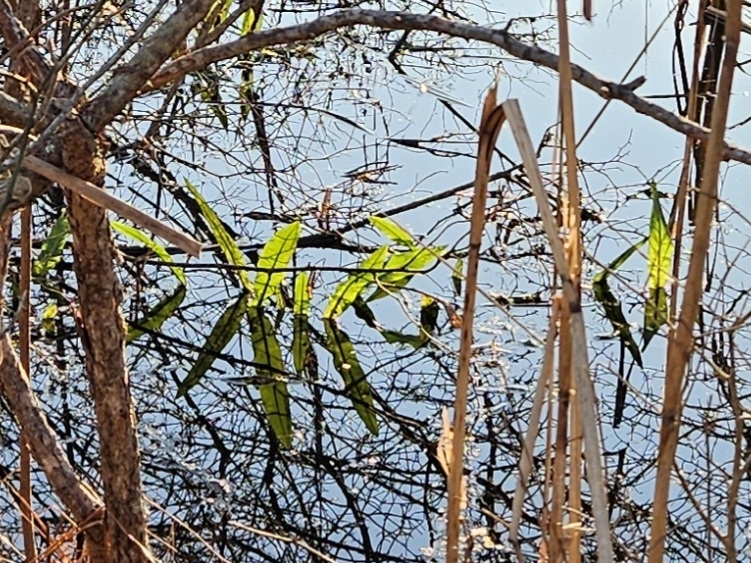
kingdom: Plantae
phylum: Tracheophyta
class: Magnoliopsida
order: Caryophyllales
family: Polygonaceae
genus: Rumex
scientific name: Rumex verticillatus
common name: Swamp dock
